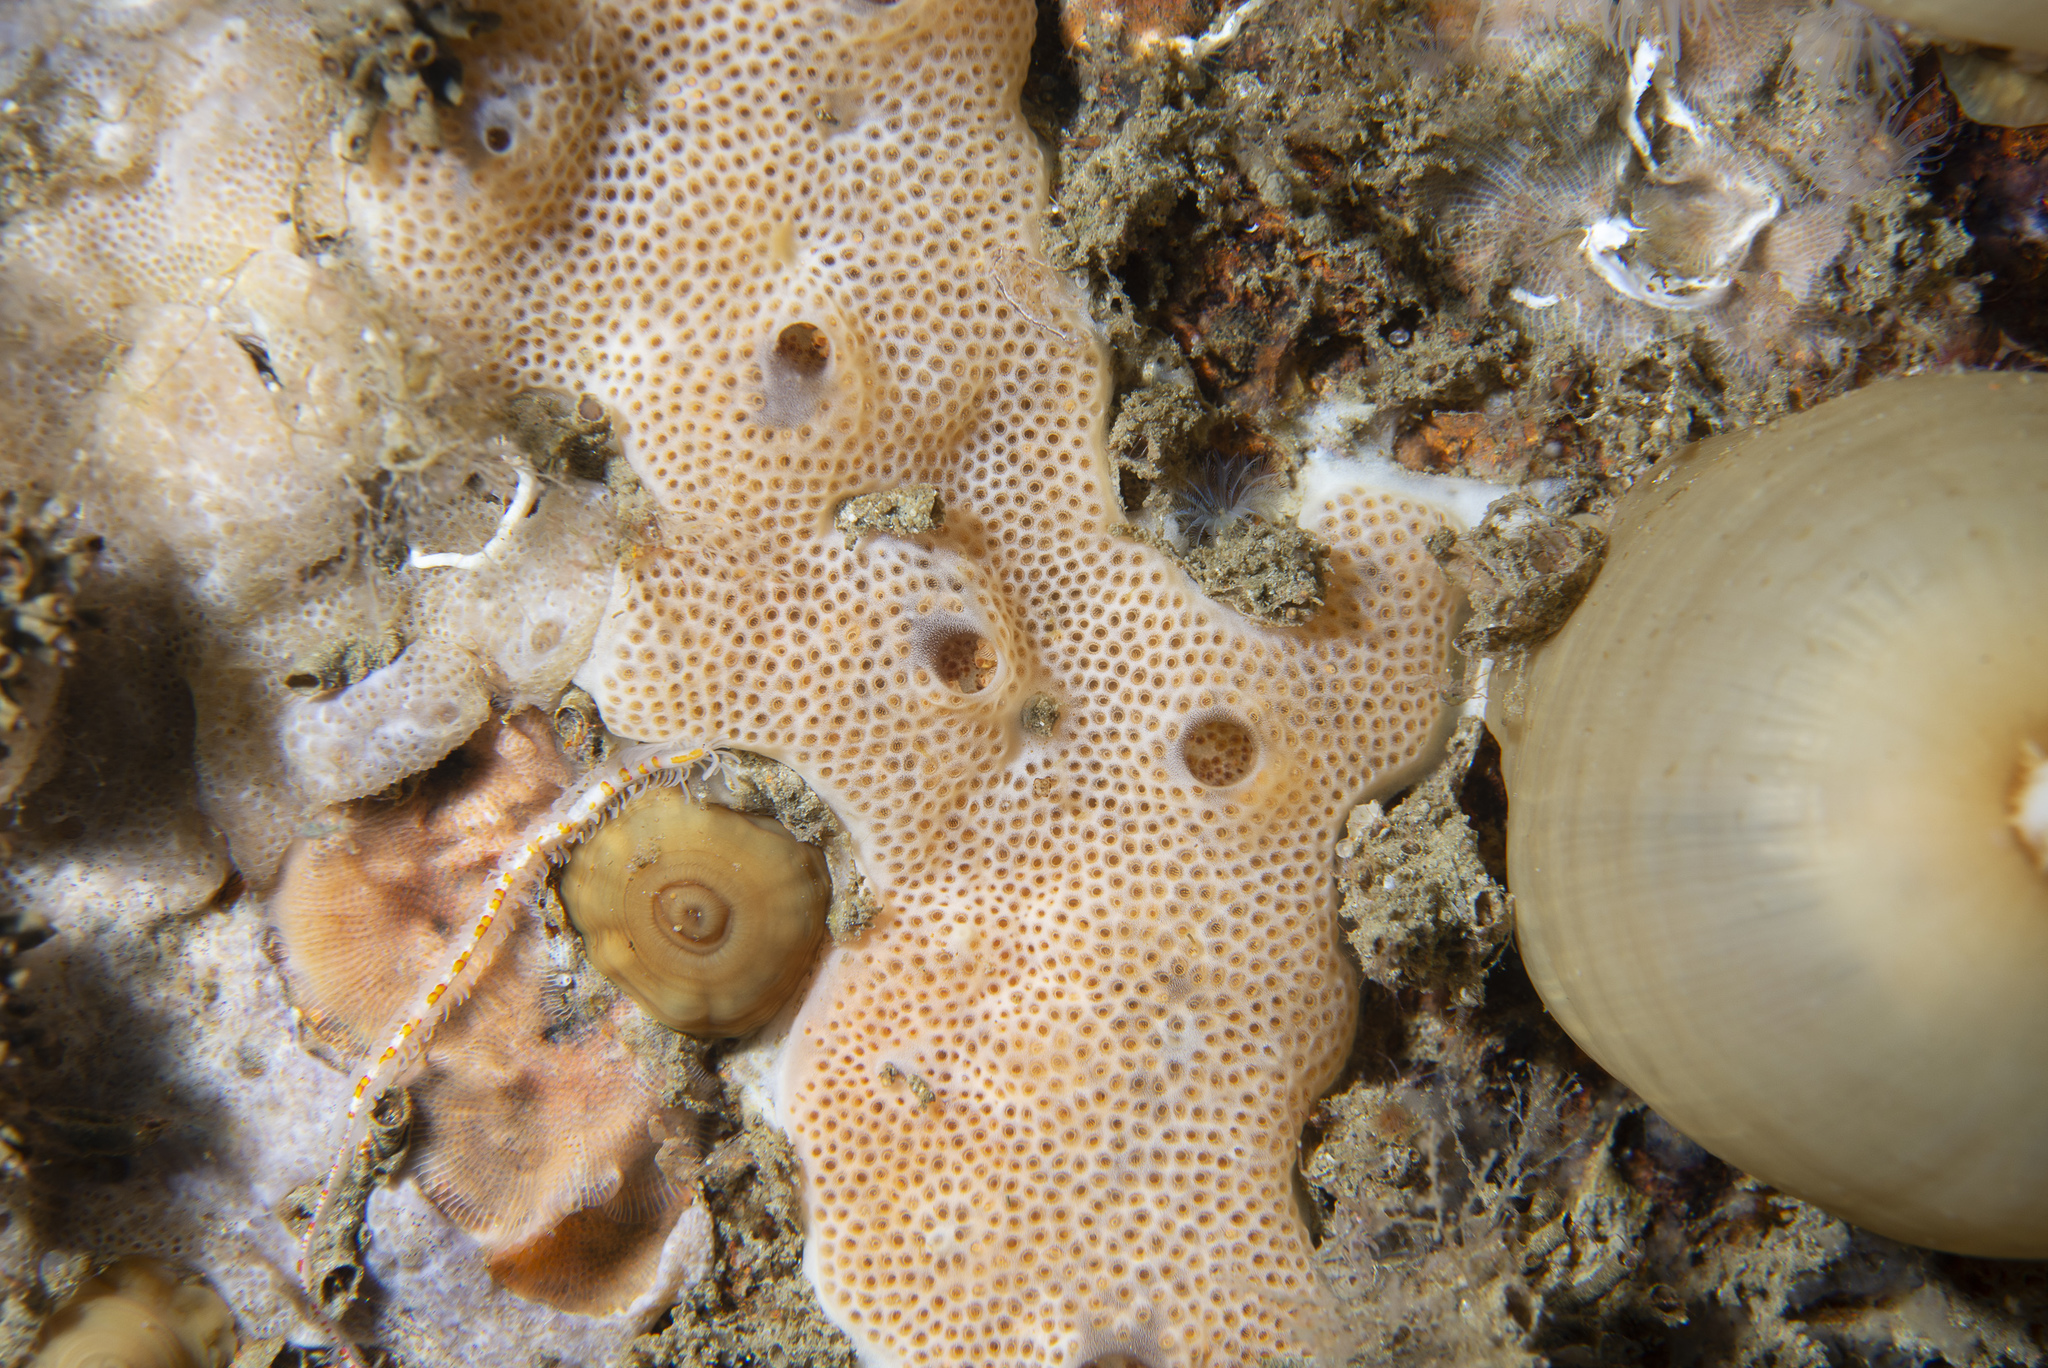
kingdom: Animalia
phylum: Chordata
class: Ascidiacea
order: Aplousobranchia
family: Didemnidae
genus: Lissoclinum
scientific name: Lissoclinum weigelei
